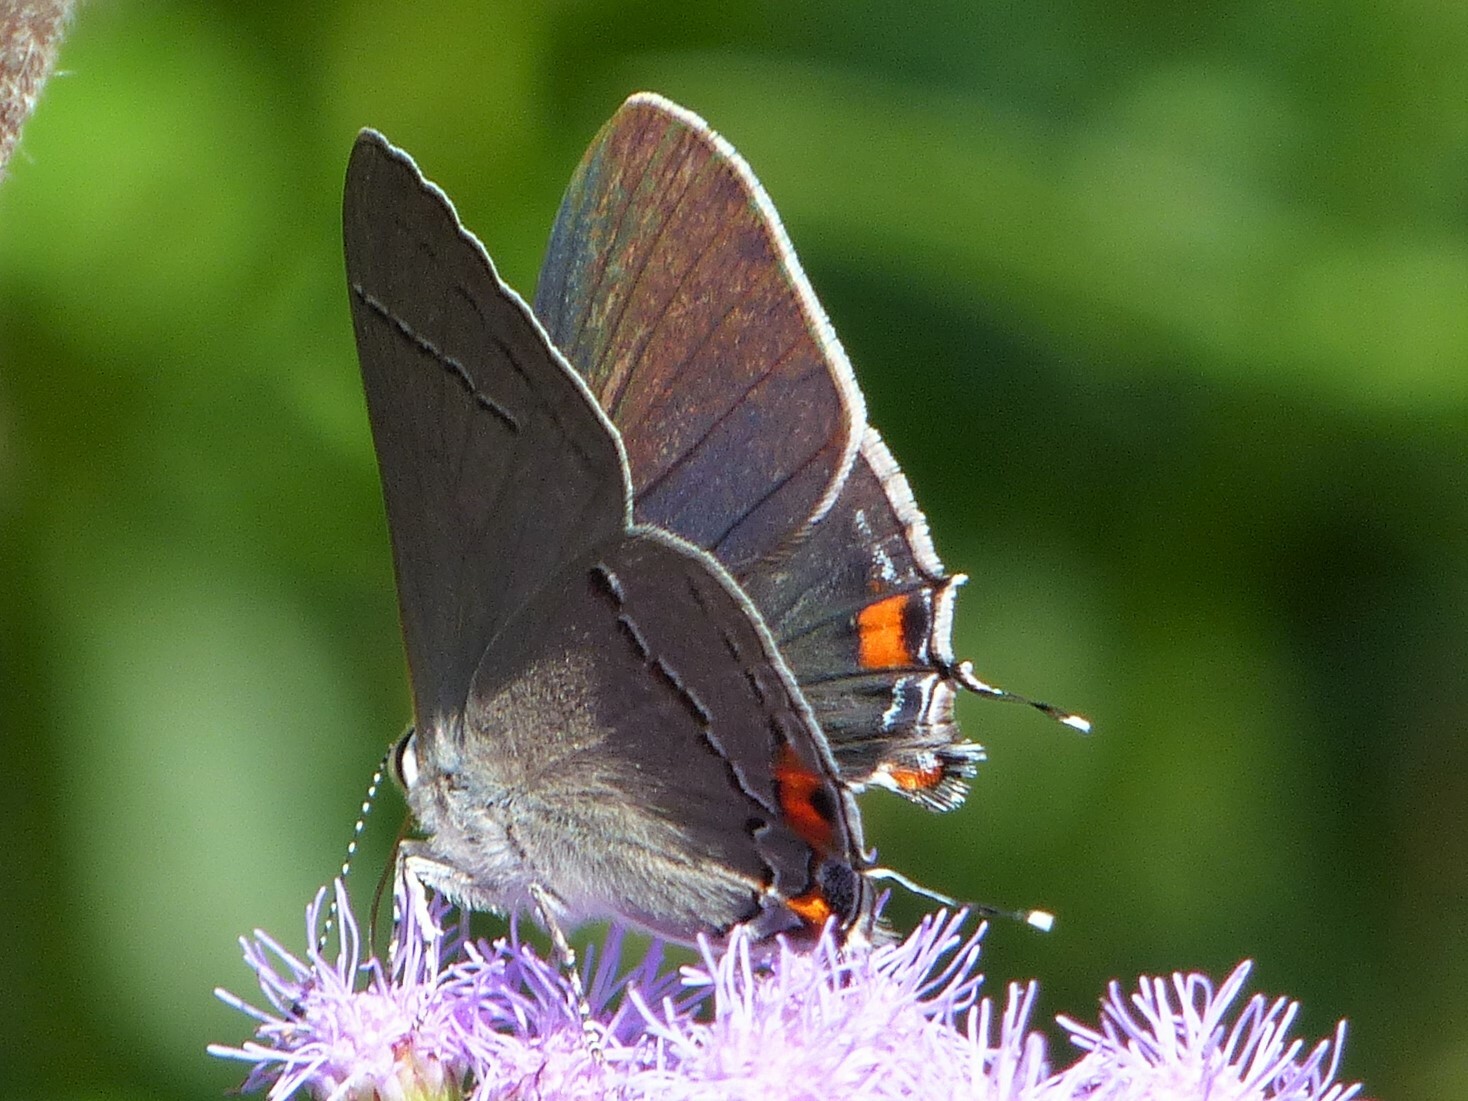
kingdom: Animalia
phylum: Arthropoda
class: Insecta
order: Lepidoptera
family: Lycaenidae
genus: Strymon
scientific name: Strymon melinus
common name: Gray hairstreak
